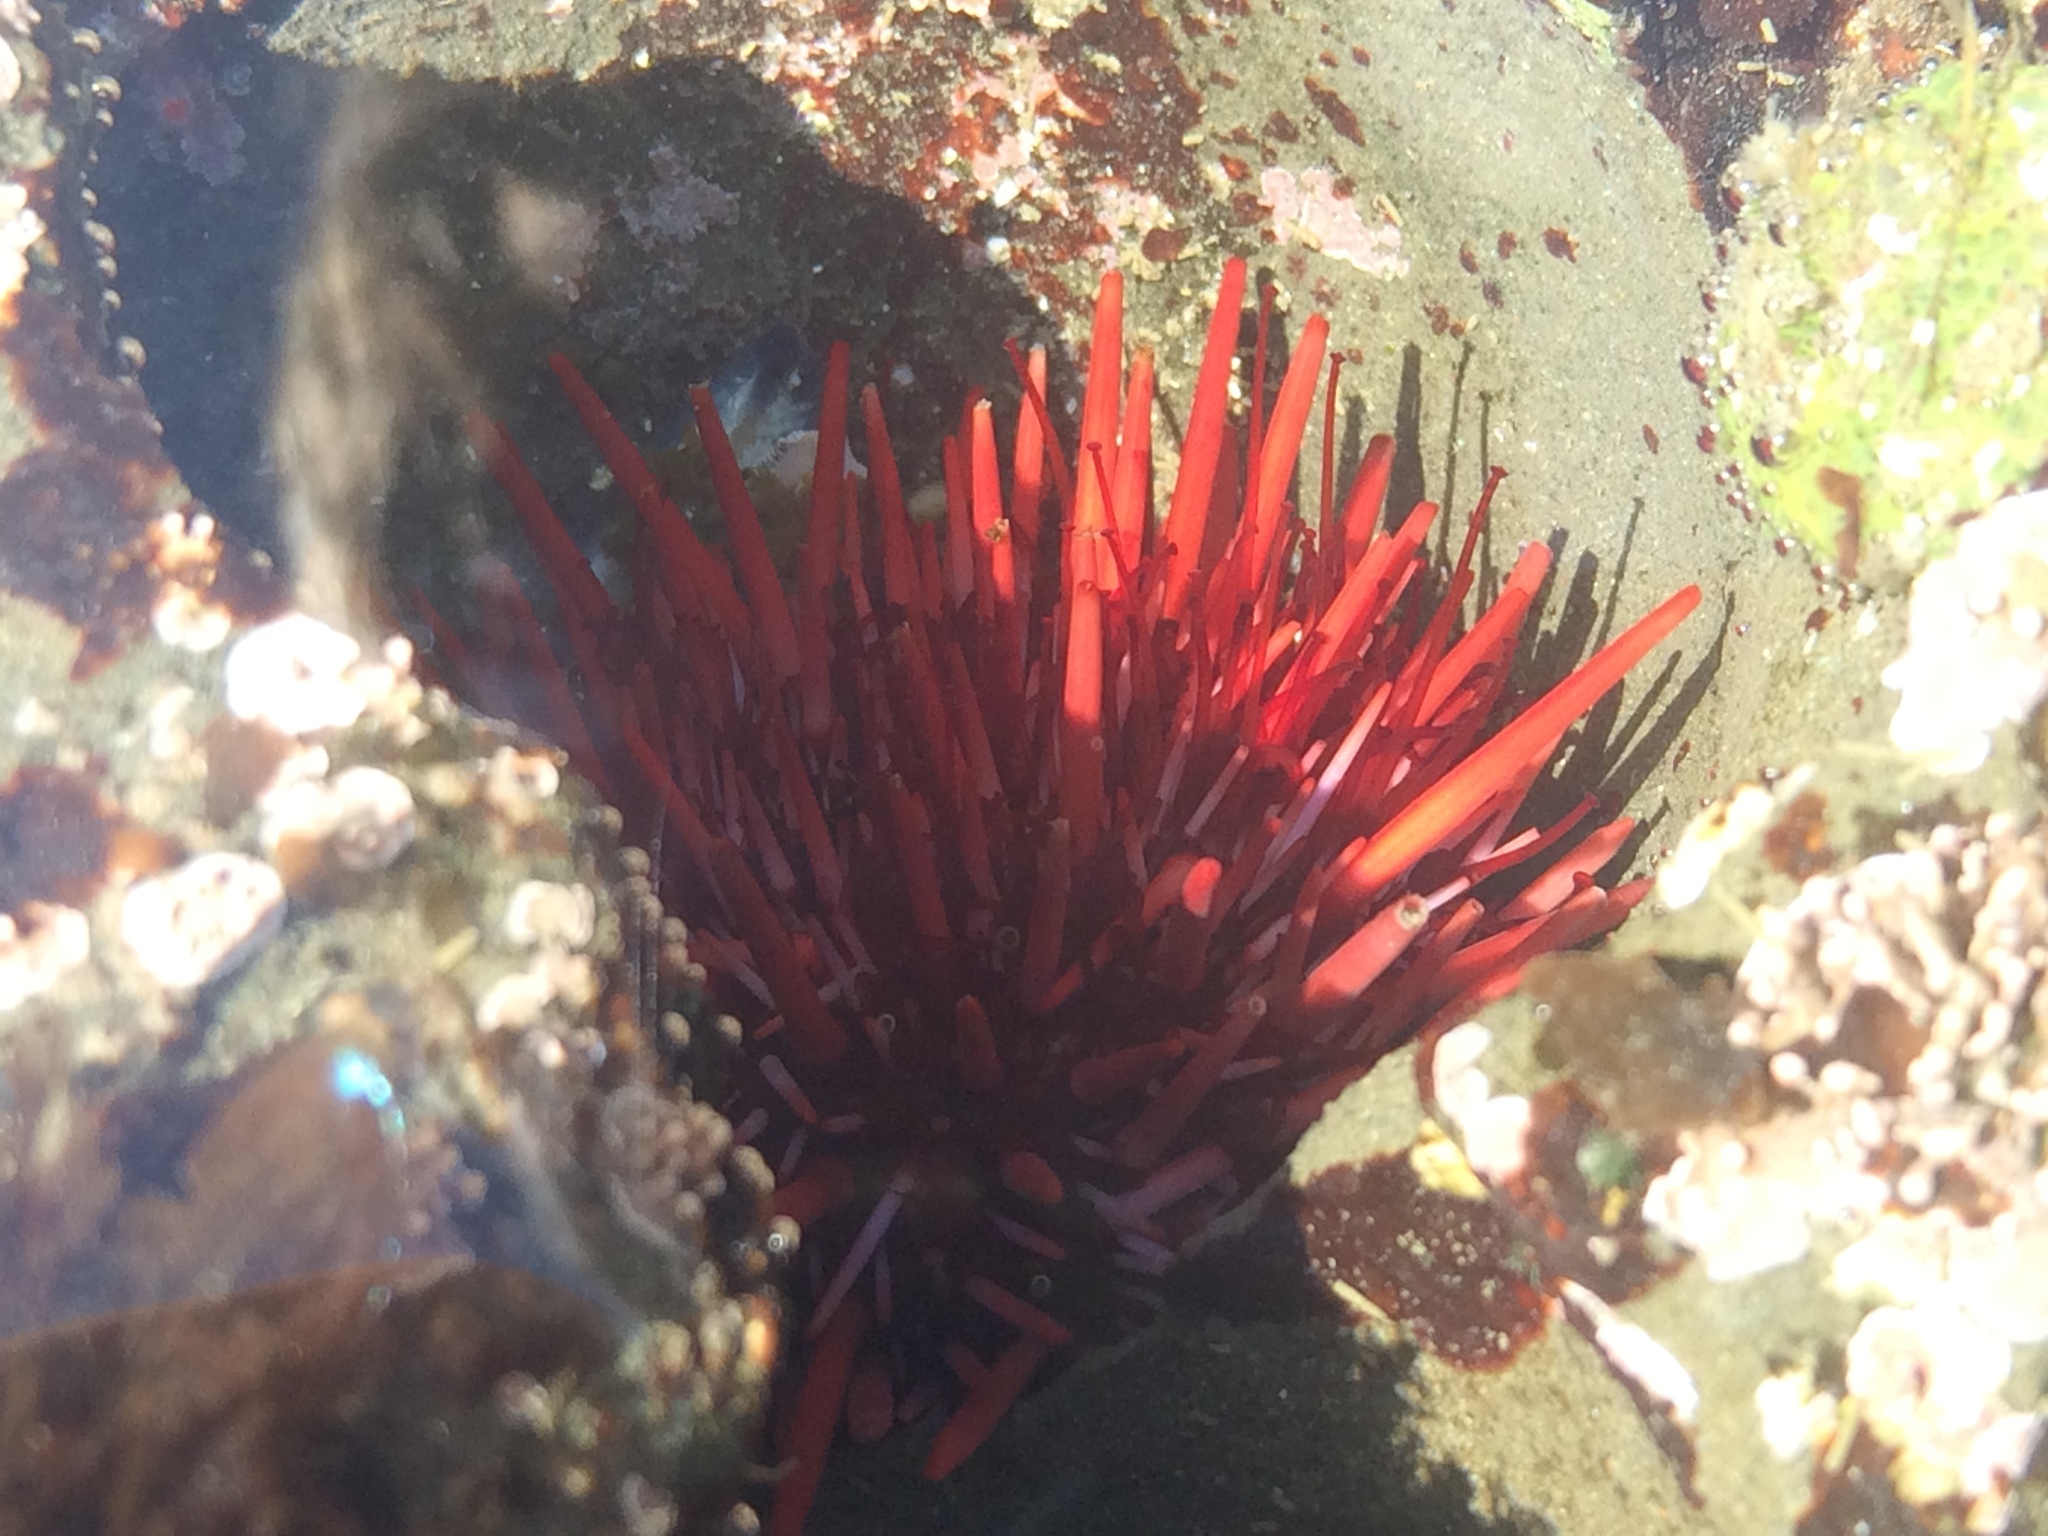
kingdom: Animalia
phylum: Echinodermata
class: Echinoidea
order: Camarodonta
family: Strongylocentrotidae
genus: Mesocentrotus
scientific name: Mesocentrotus franciscanus
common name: Red sea urchin
